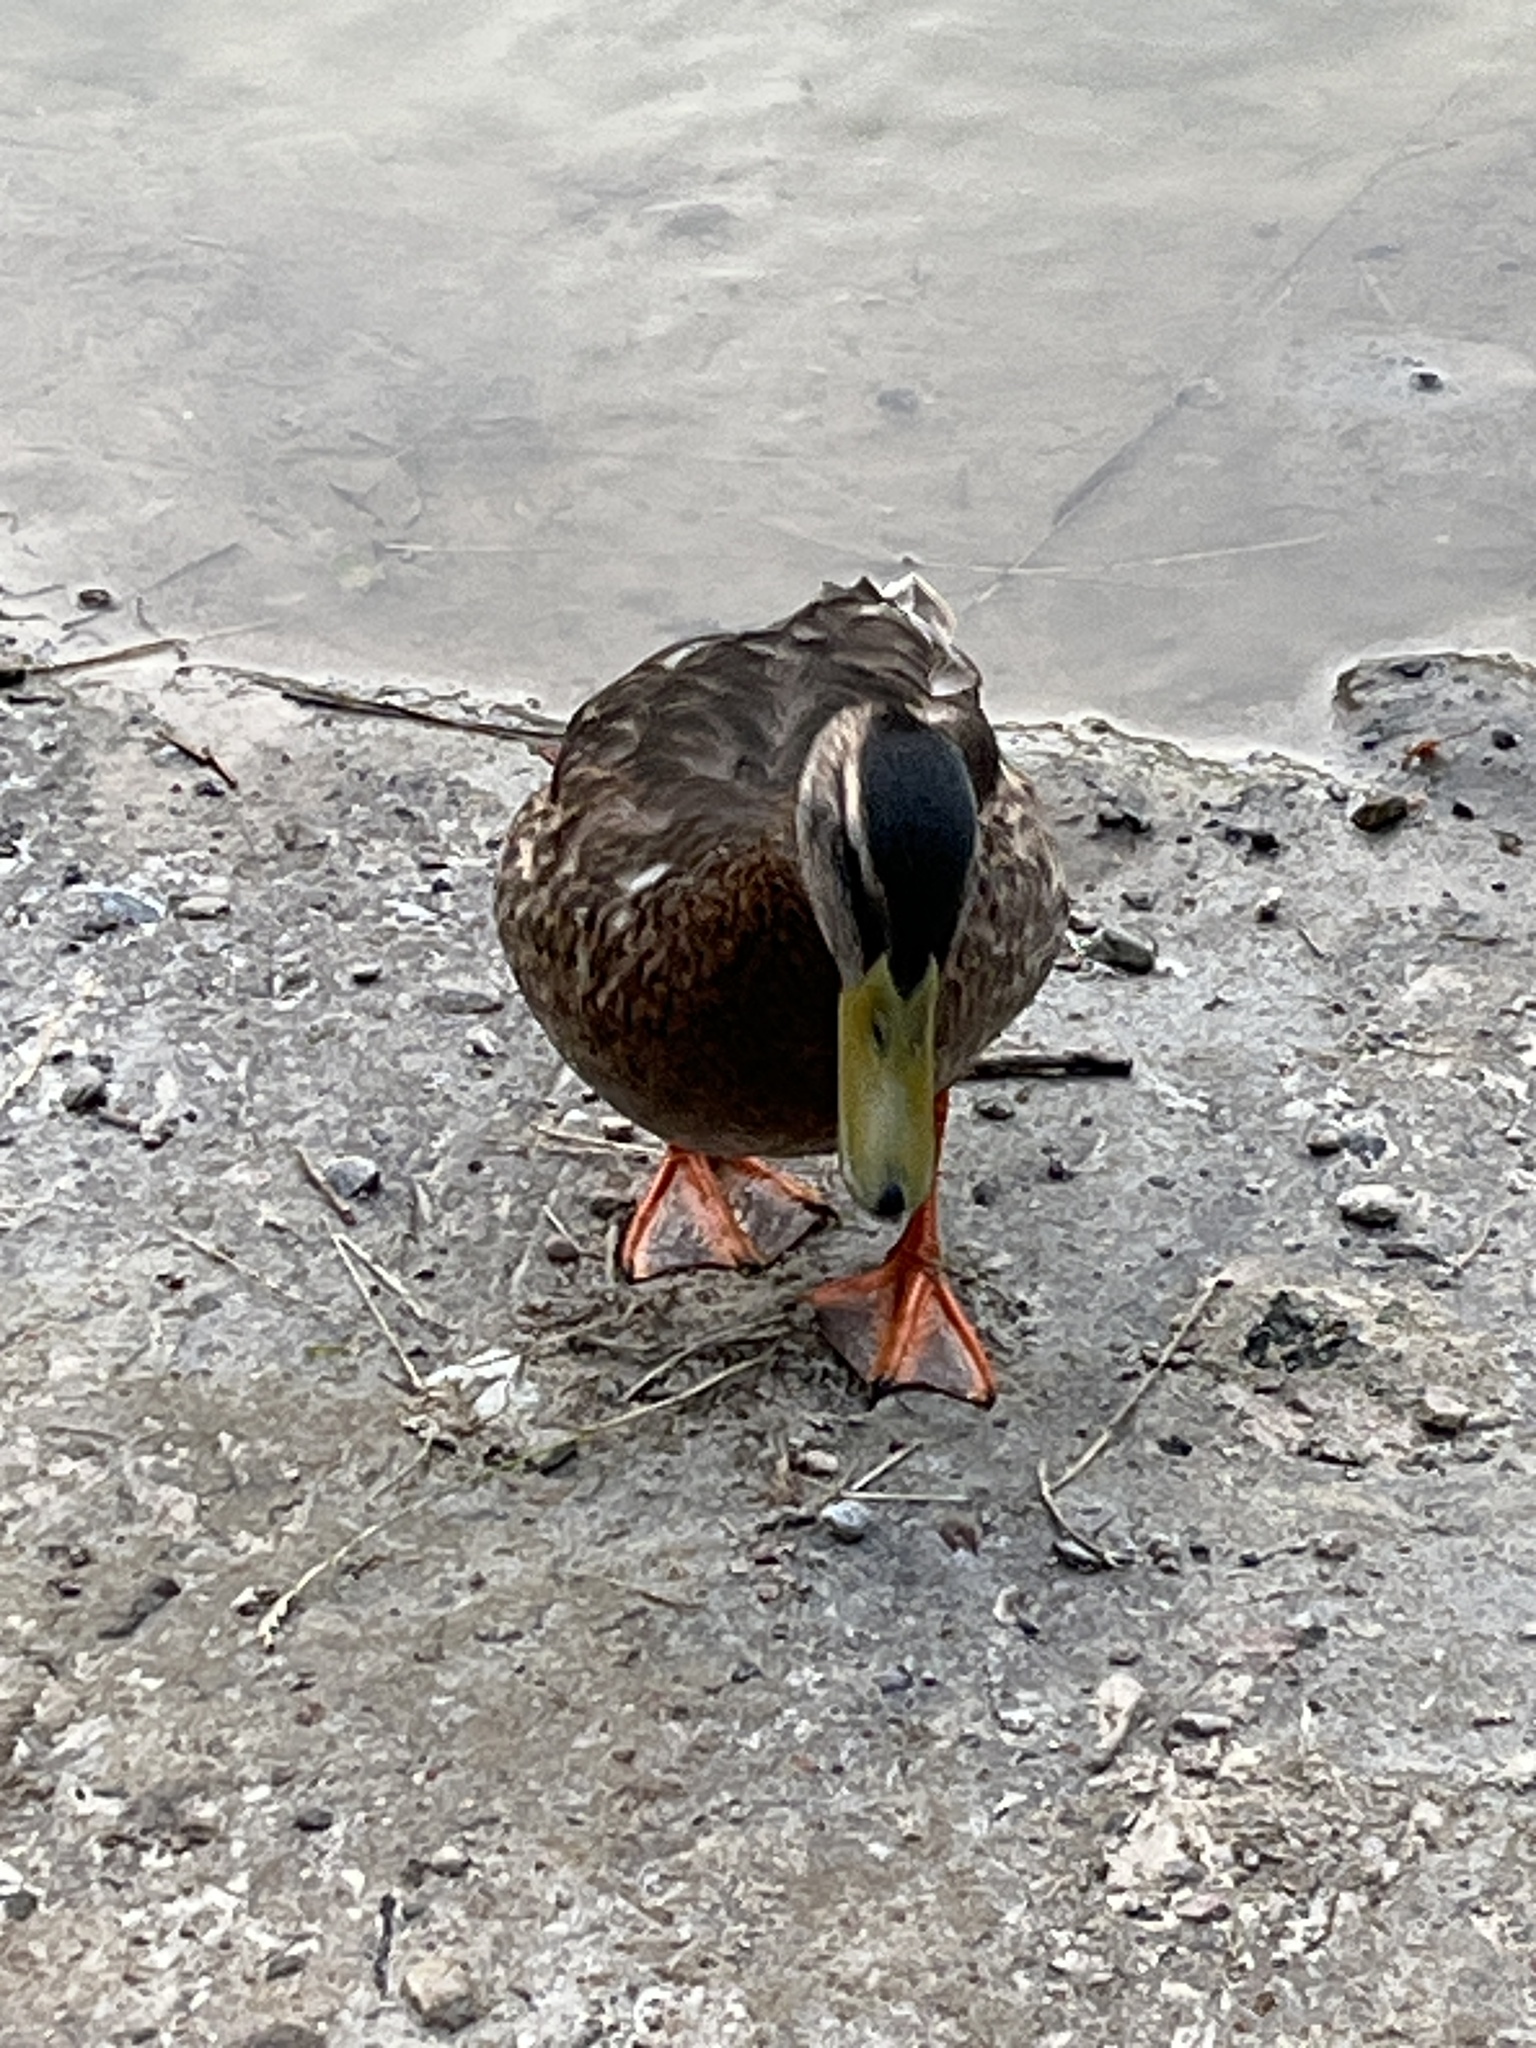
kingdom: Animalia
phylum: Chordata
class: Aves
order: Anseriformes
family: Anatidae
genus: Anas
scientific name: Anas platyrhynchos
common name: Mallard
